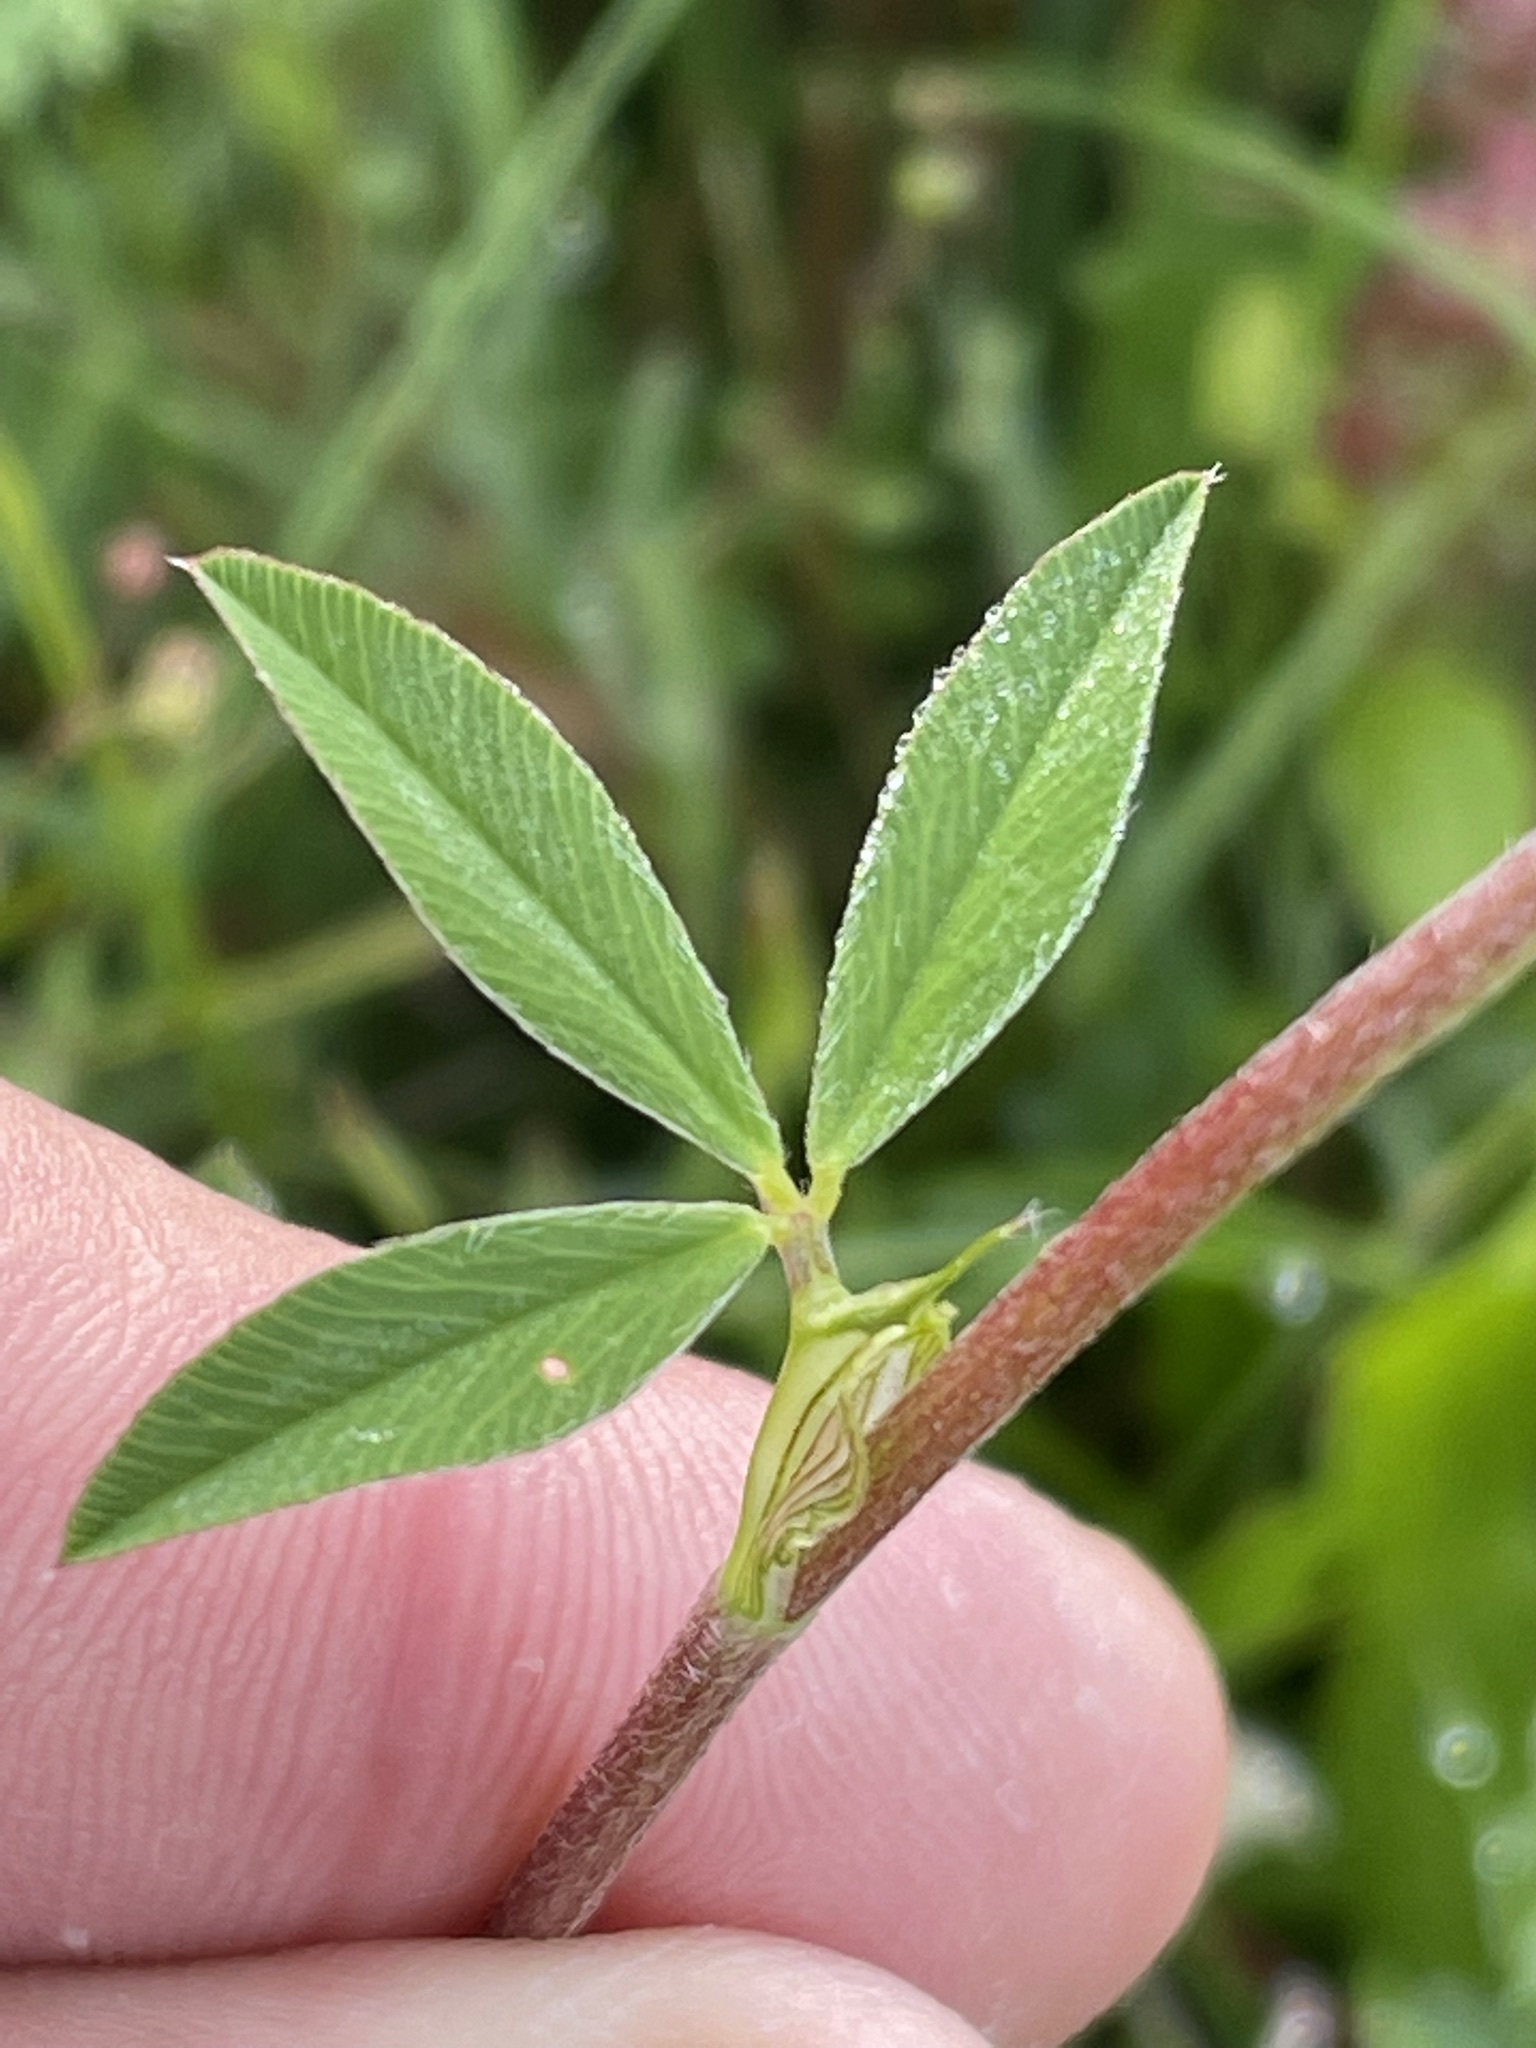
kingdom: Plantae
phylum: Tracheophyta
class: Magnoliopsida
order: Fabales
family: Fabaceae
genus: Trifolium
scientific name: Trifolium pratense
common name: Red clover
